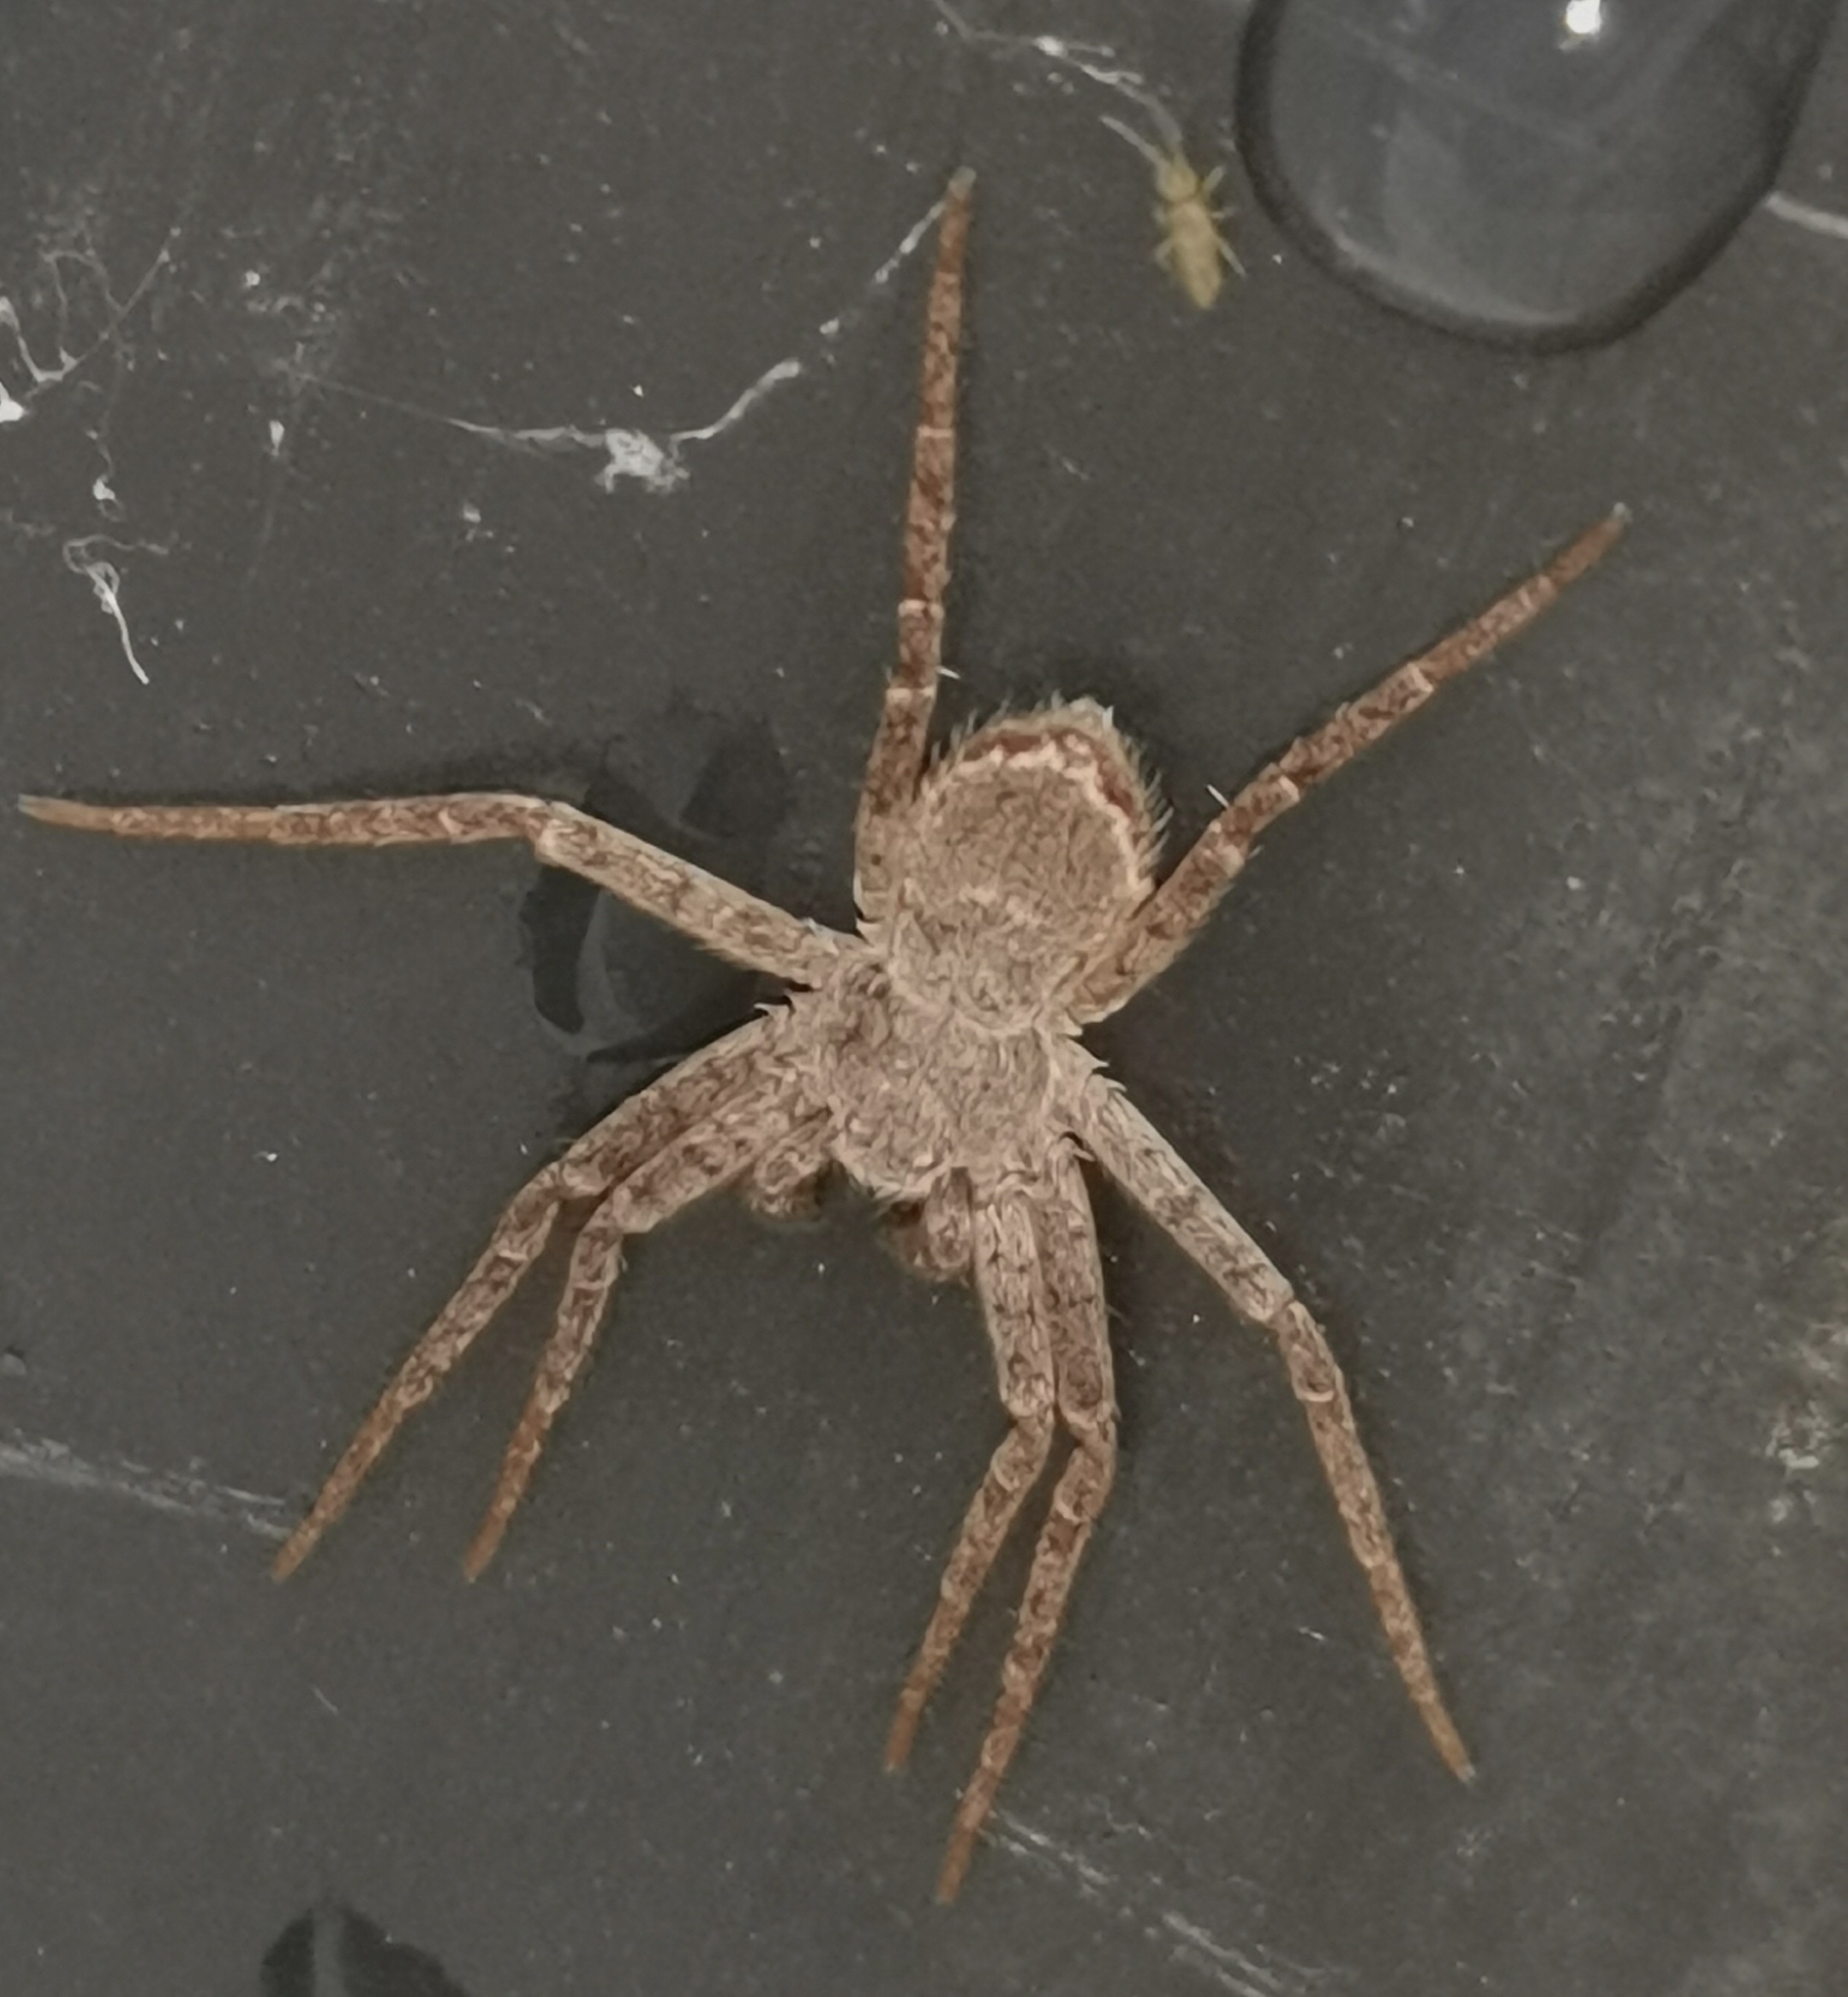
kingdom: Animalia
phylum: Arthropoda
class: Arachnida
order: Araneae
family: Philodromidae
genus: Philodromus
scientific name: Philodromus fuscomarginatus
